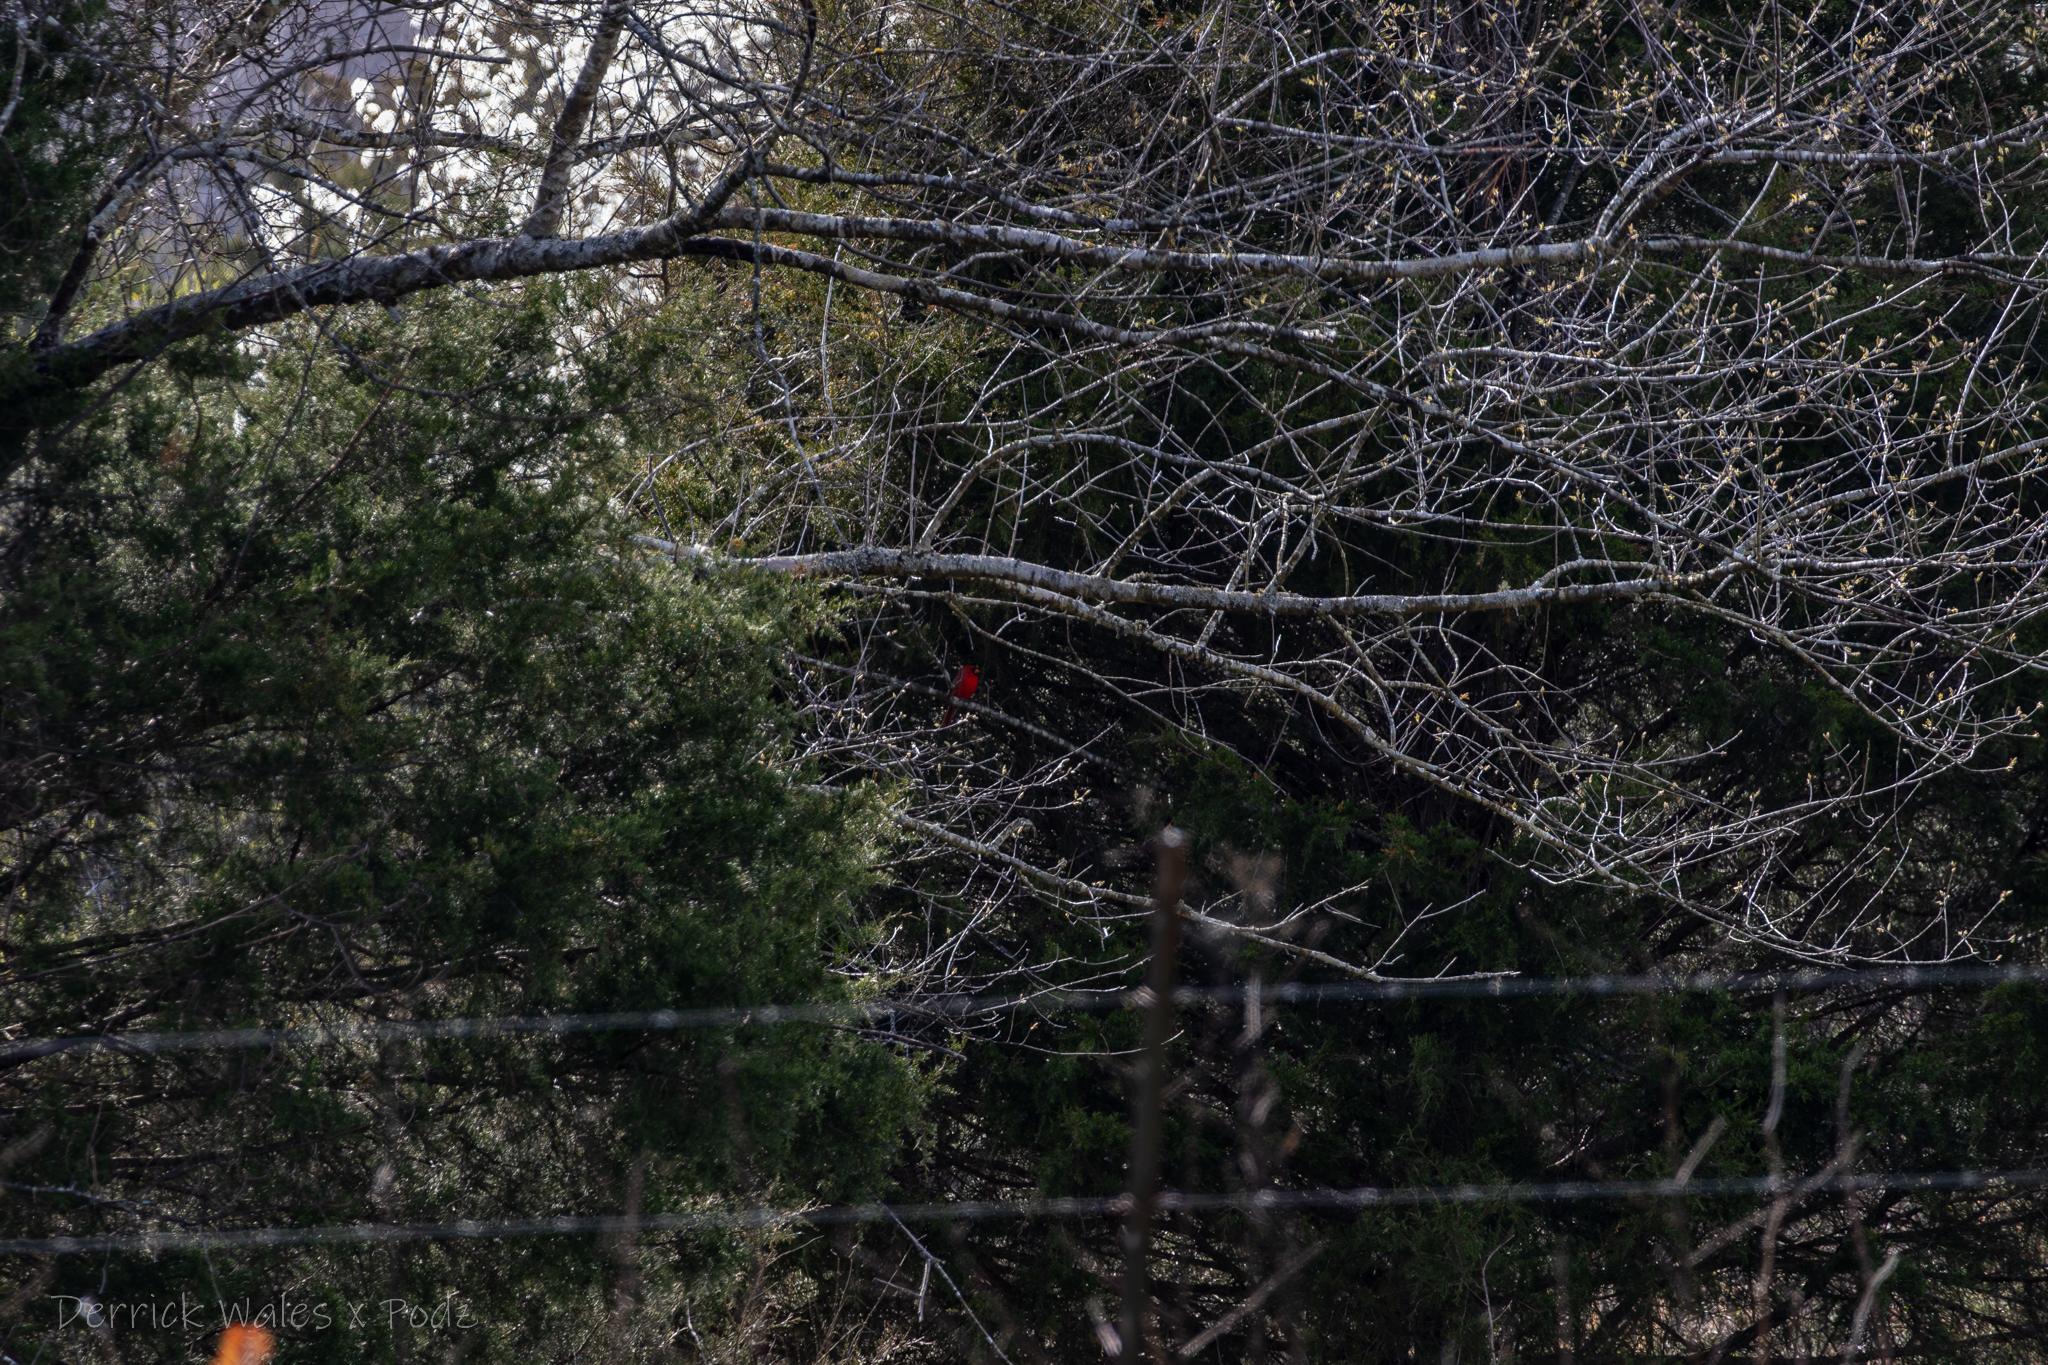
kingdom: Animalia
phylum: Chordata
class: Aves
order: Passeriformes
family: Cardinalidae
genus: Cardinalis
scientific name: Cardinalis cardinalis
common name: Northern cardinal
